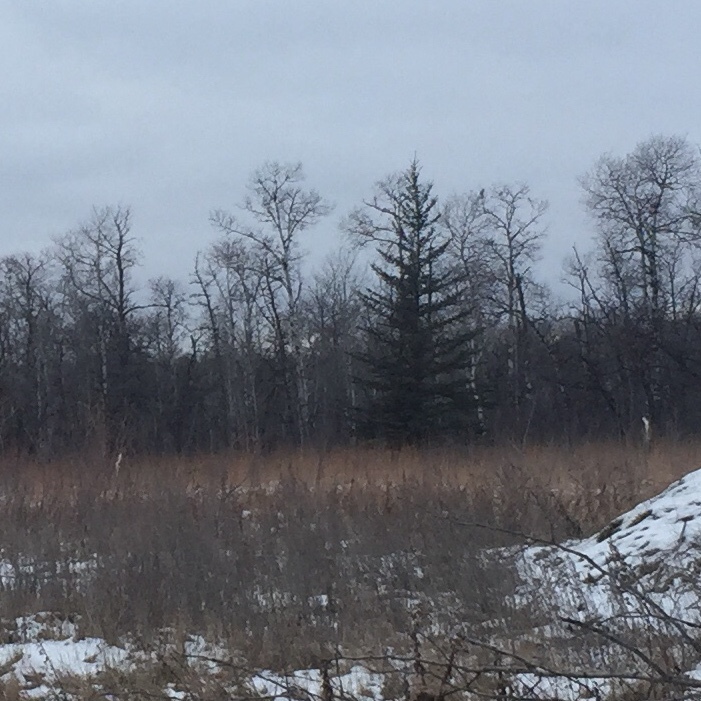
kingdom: Animalia
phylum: Chordata
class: Mammalia
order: Artiodactyla
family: Cervidae
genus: Odocoileus
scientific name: Odocoileus virginianus
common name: White-tailed deer
